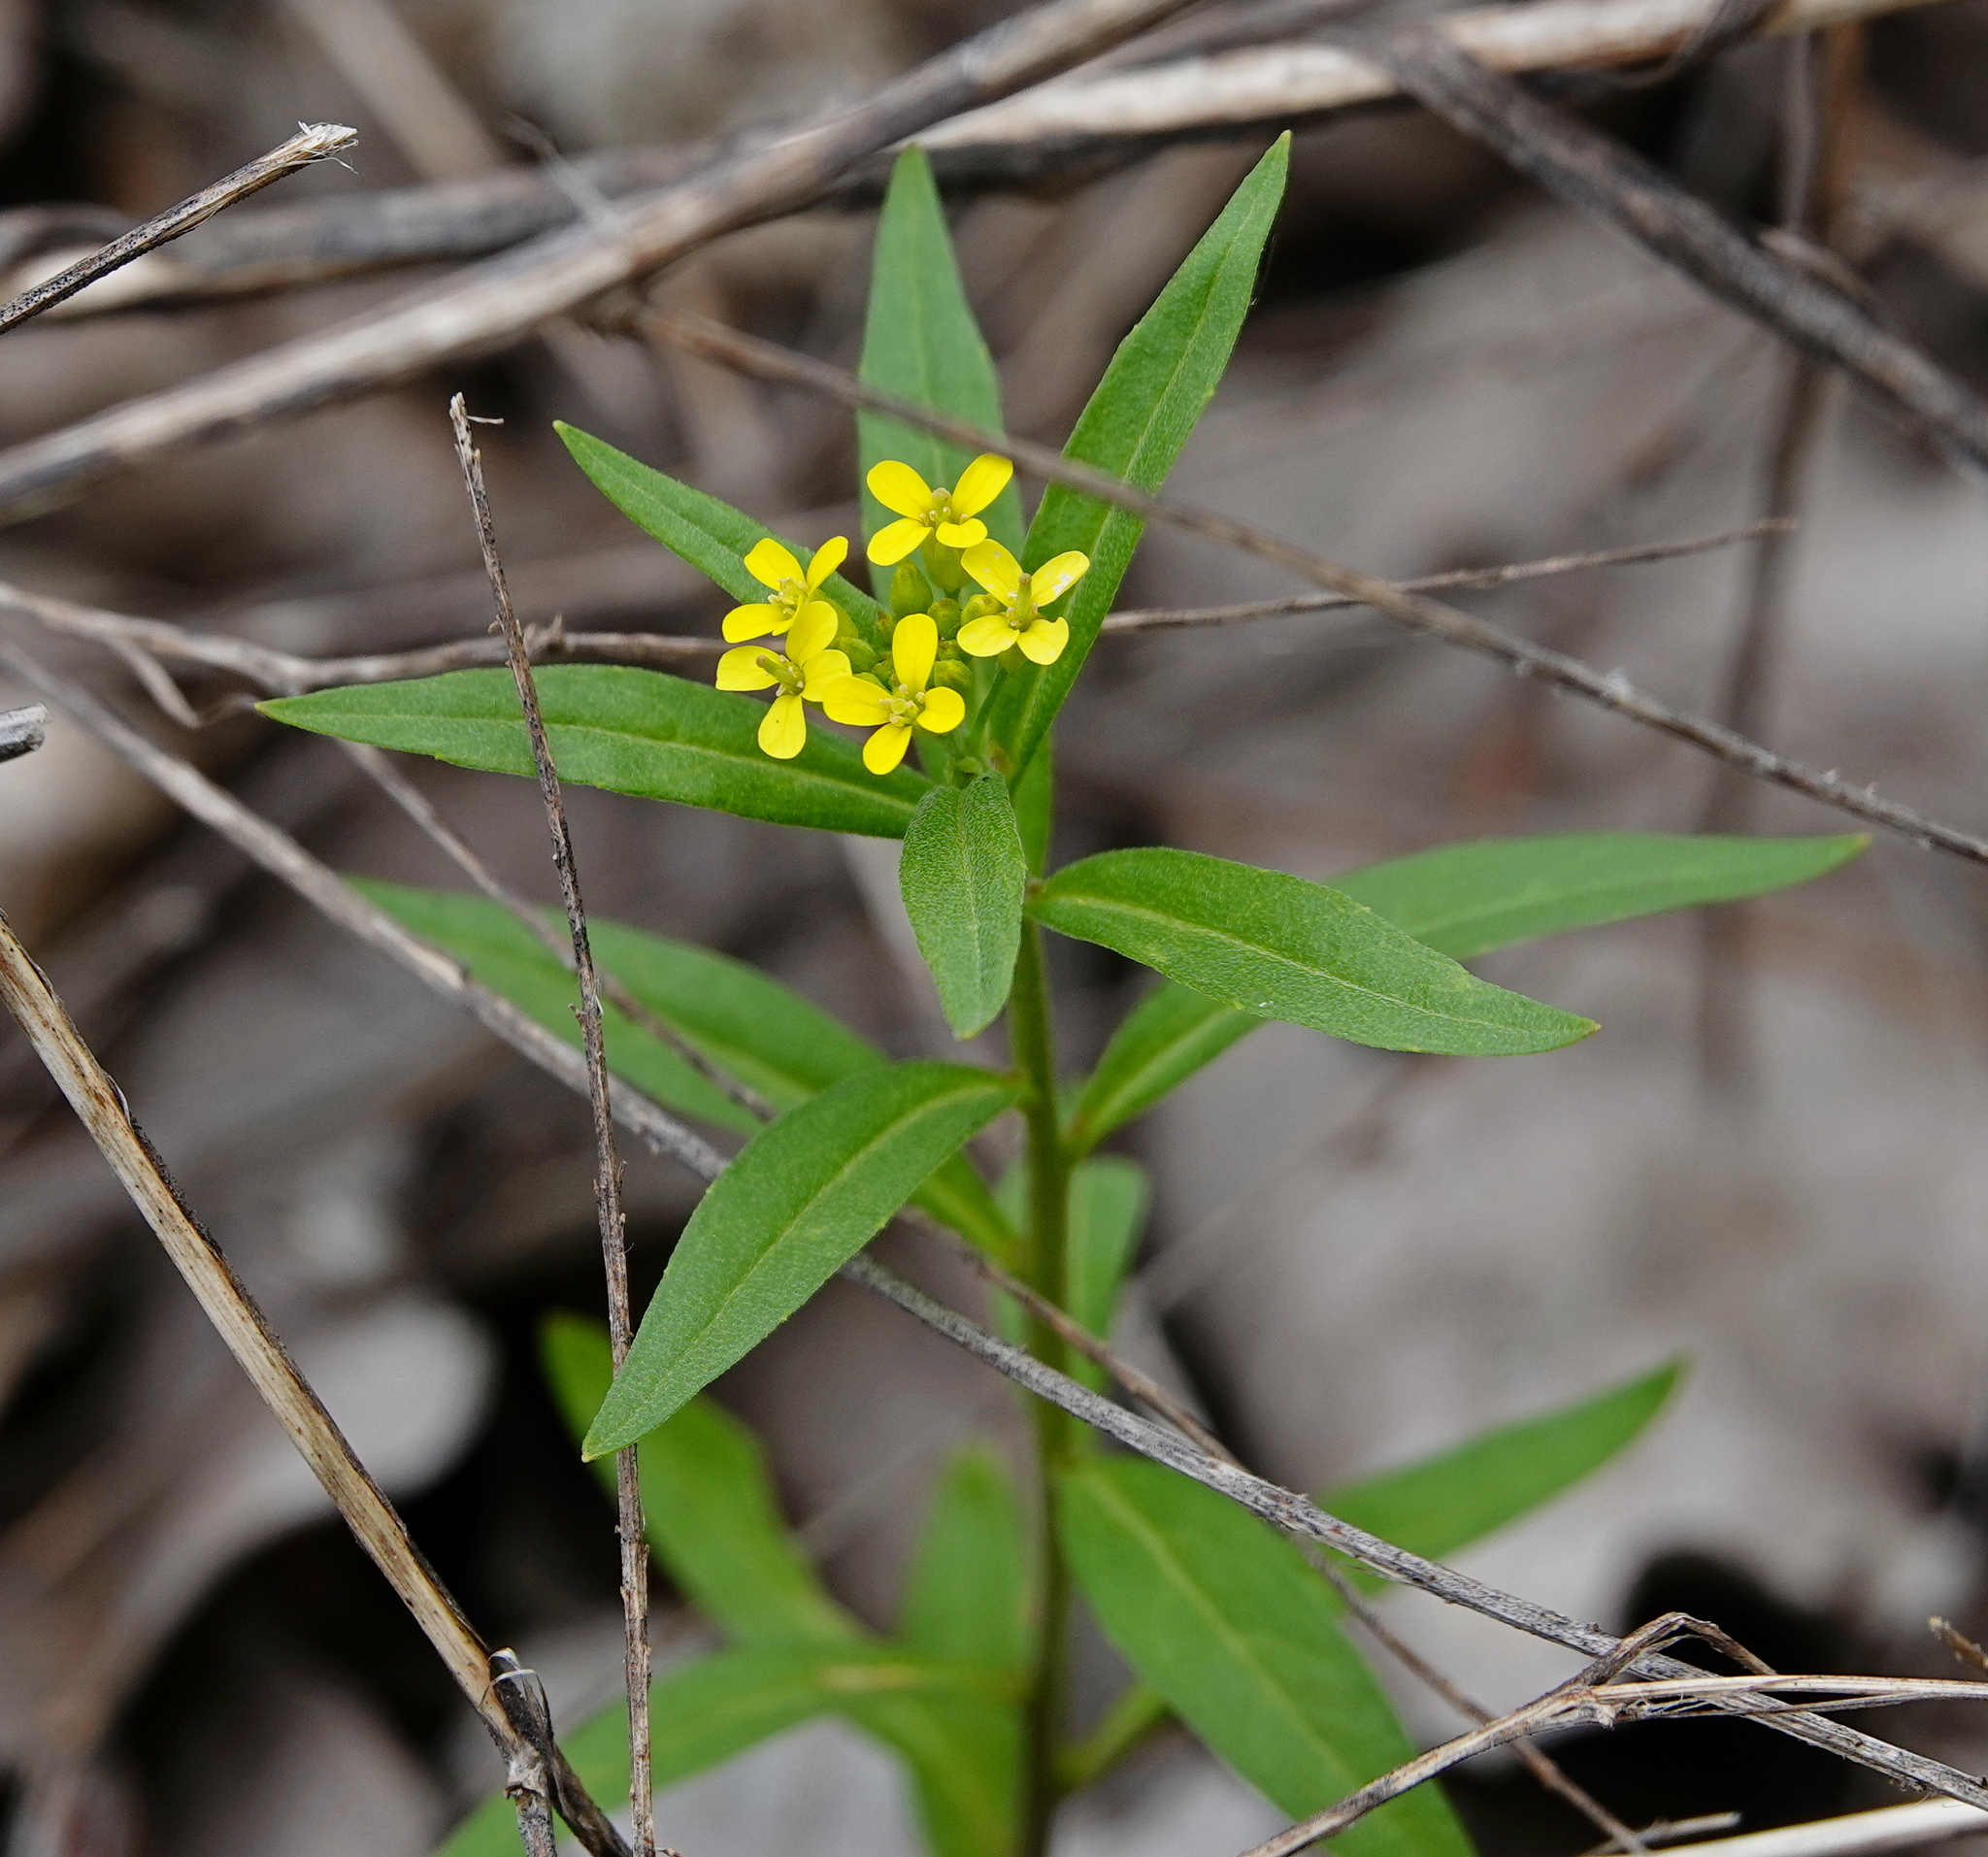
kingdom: Plantae
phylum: Tracheophyta
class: Magnoliopsida
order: Brassicales
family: Brassicaceae
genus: Erysimum
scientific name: Erysimum cheiranthoides
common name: Treacle mustard
